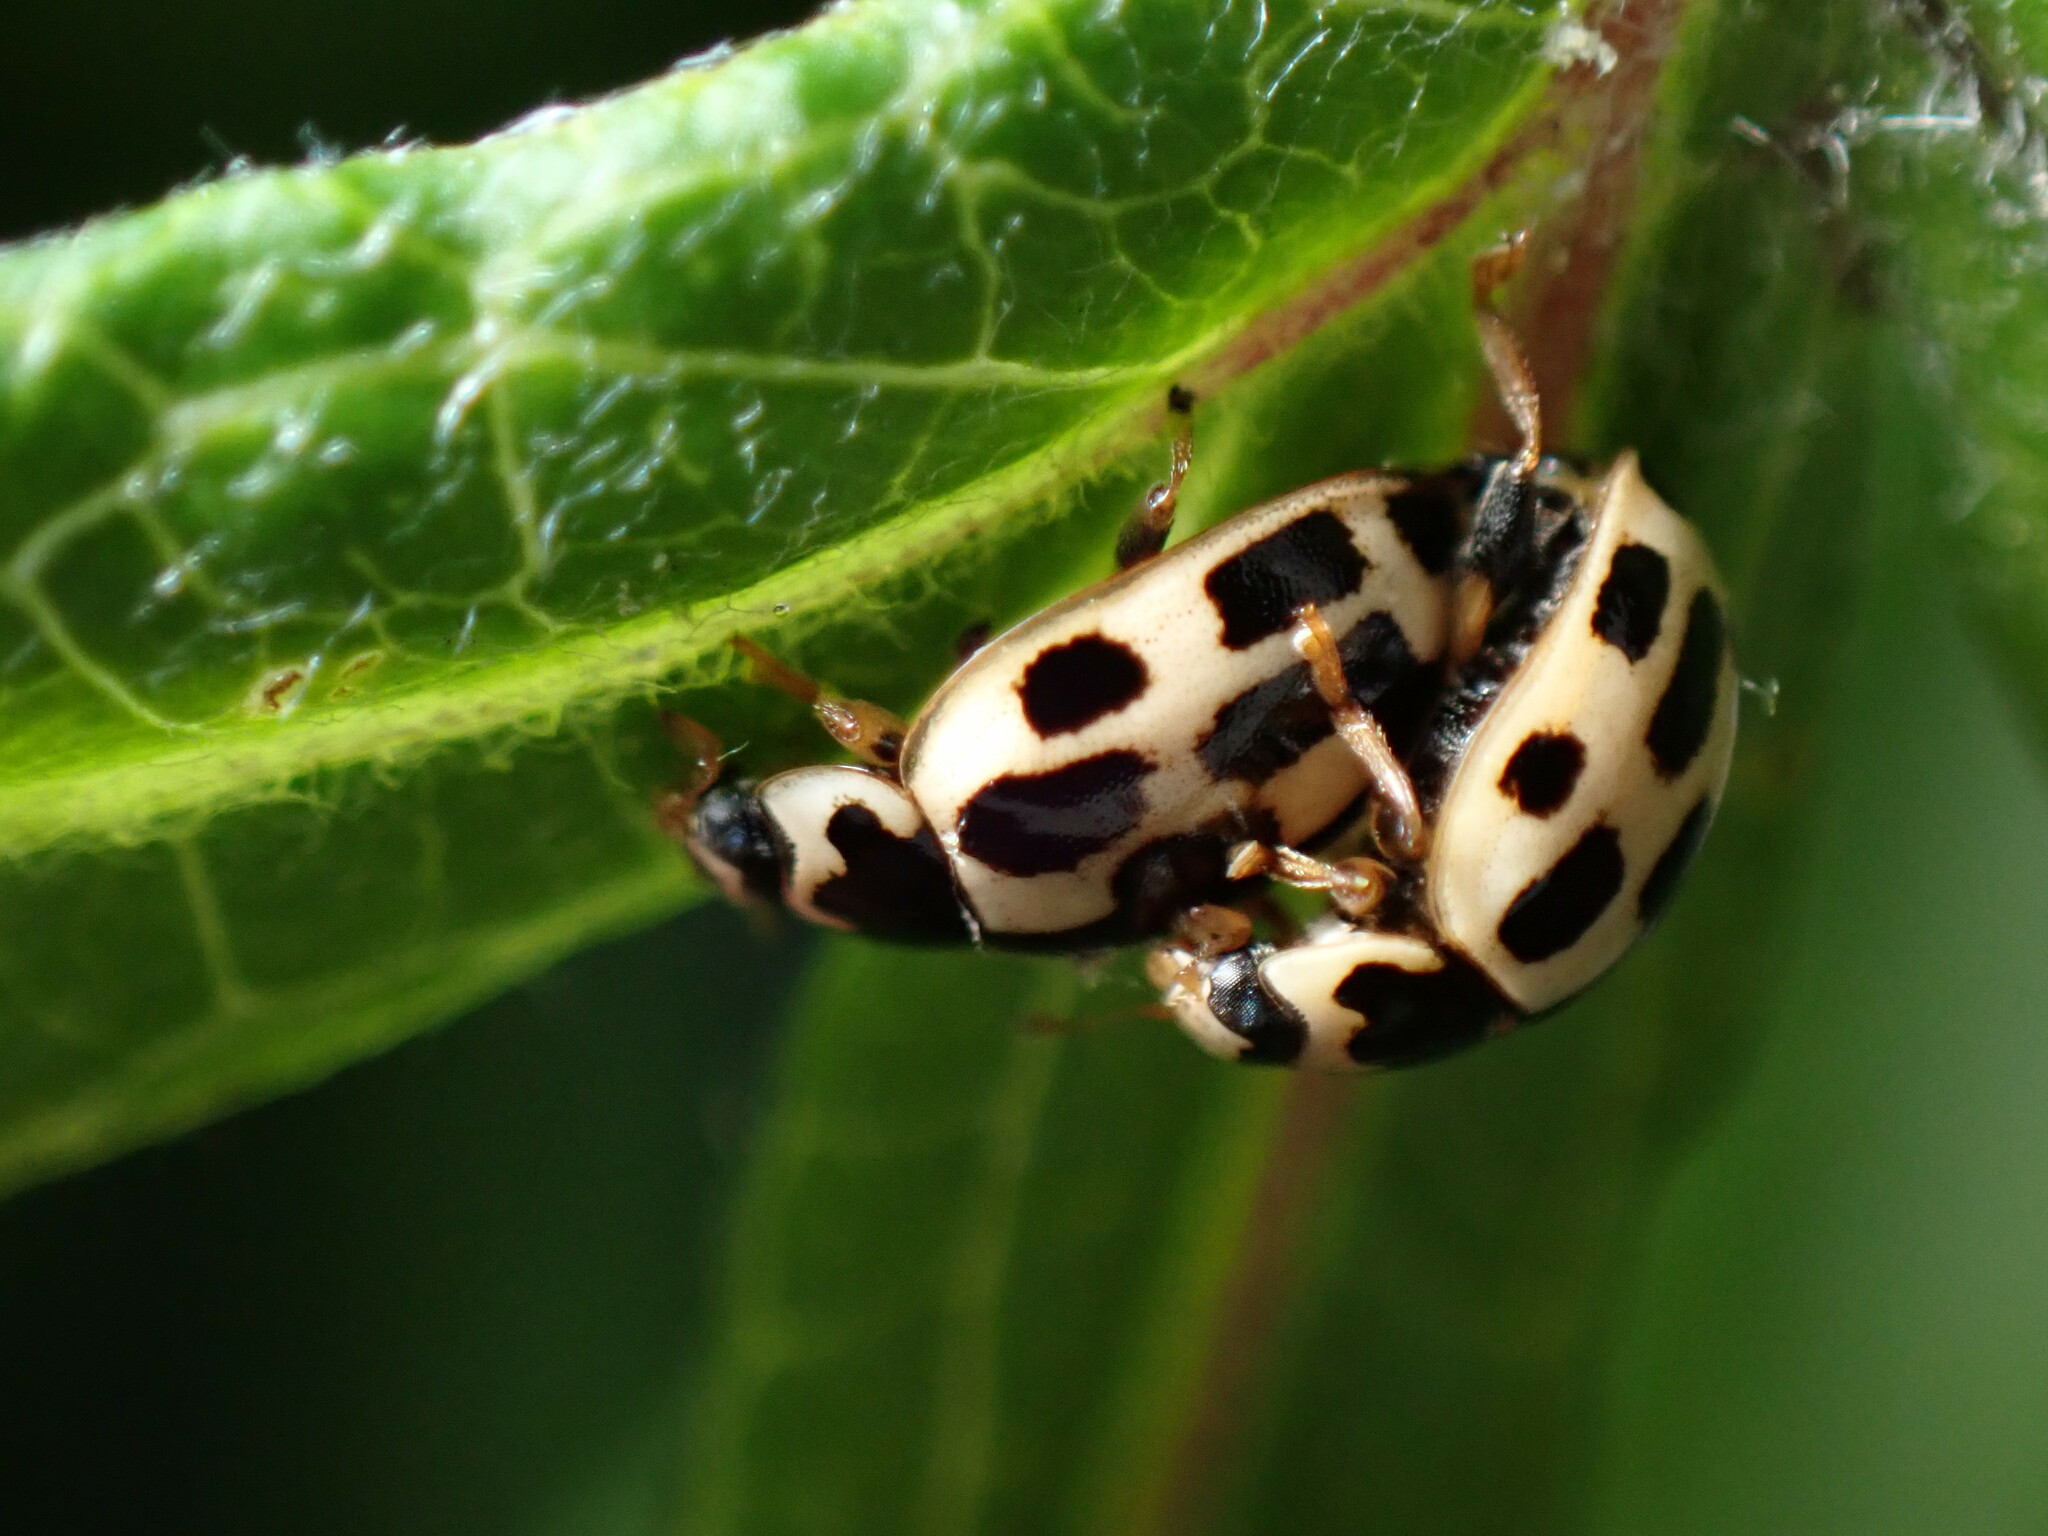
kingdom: Animalia
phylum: Arthropoda
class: Insecta
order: Coleoptera
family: Coccinellidae
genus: Propylaea
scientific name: Propylaea quatuordecimpunctata
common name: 14-spotted ladybird beetle
